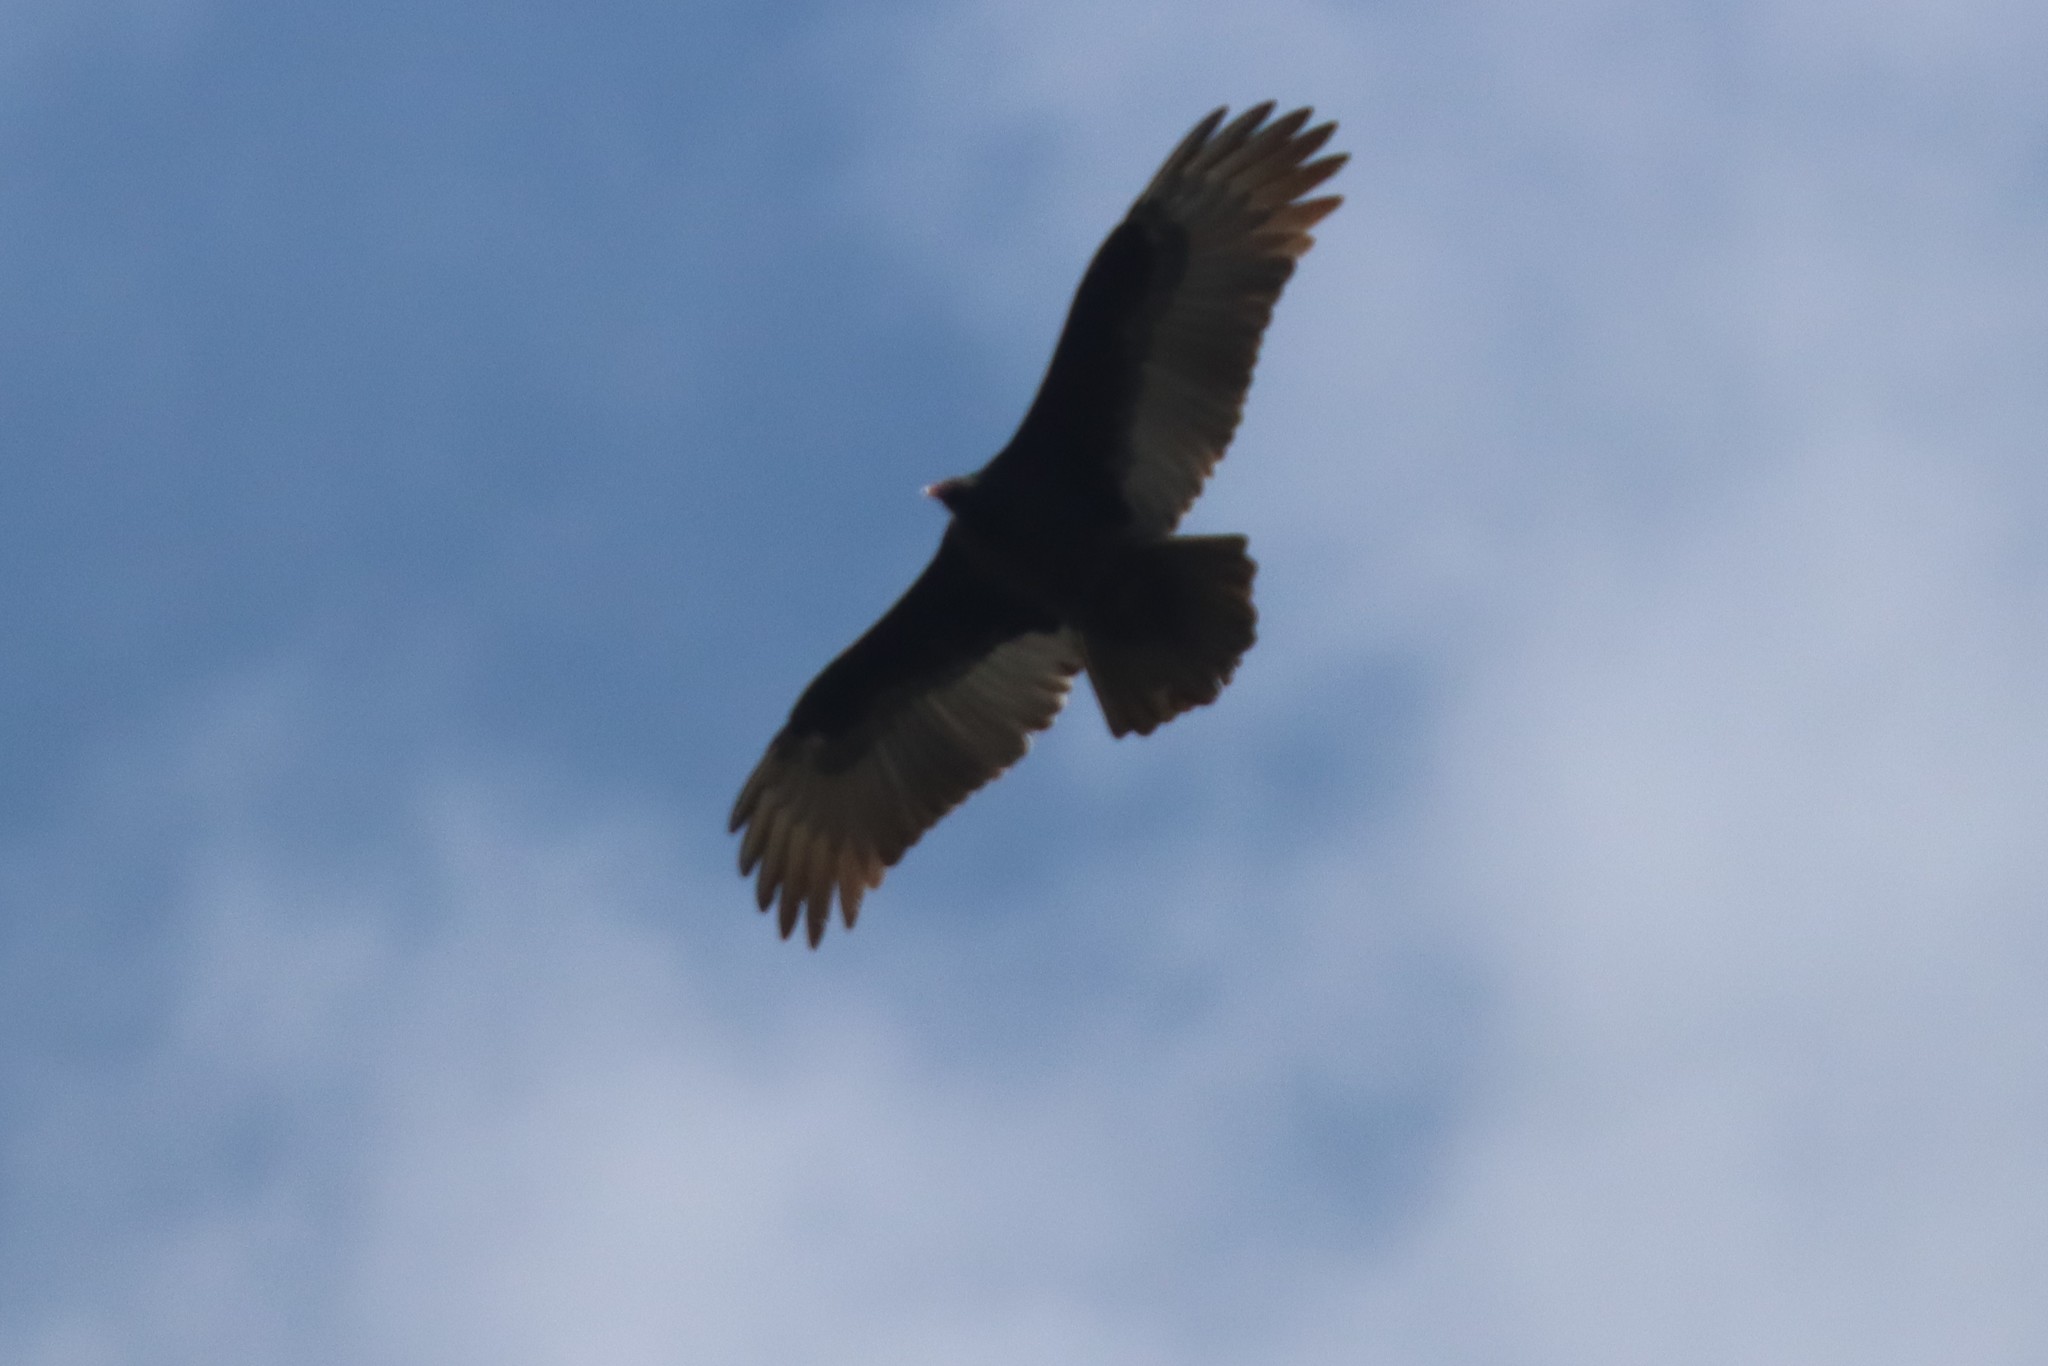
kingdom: Animalia
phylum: Chordata
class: Aves
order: Accipitriformes
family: Cathartidae
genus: Cathartes
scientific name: Cathartes aura
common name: Turkey vulture
